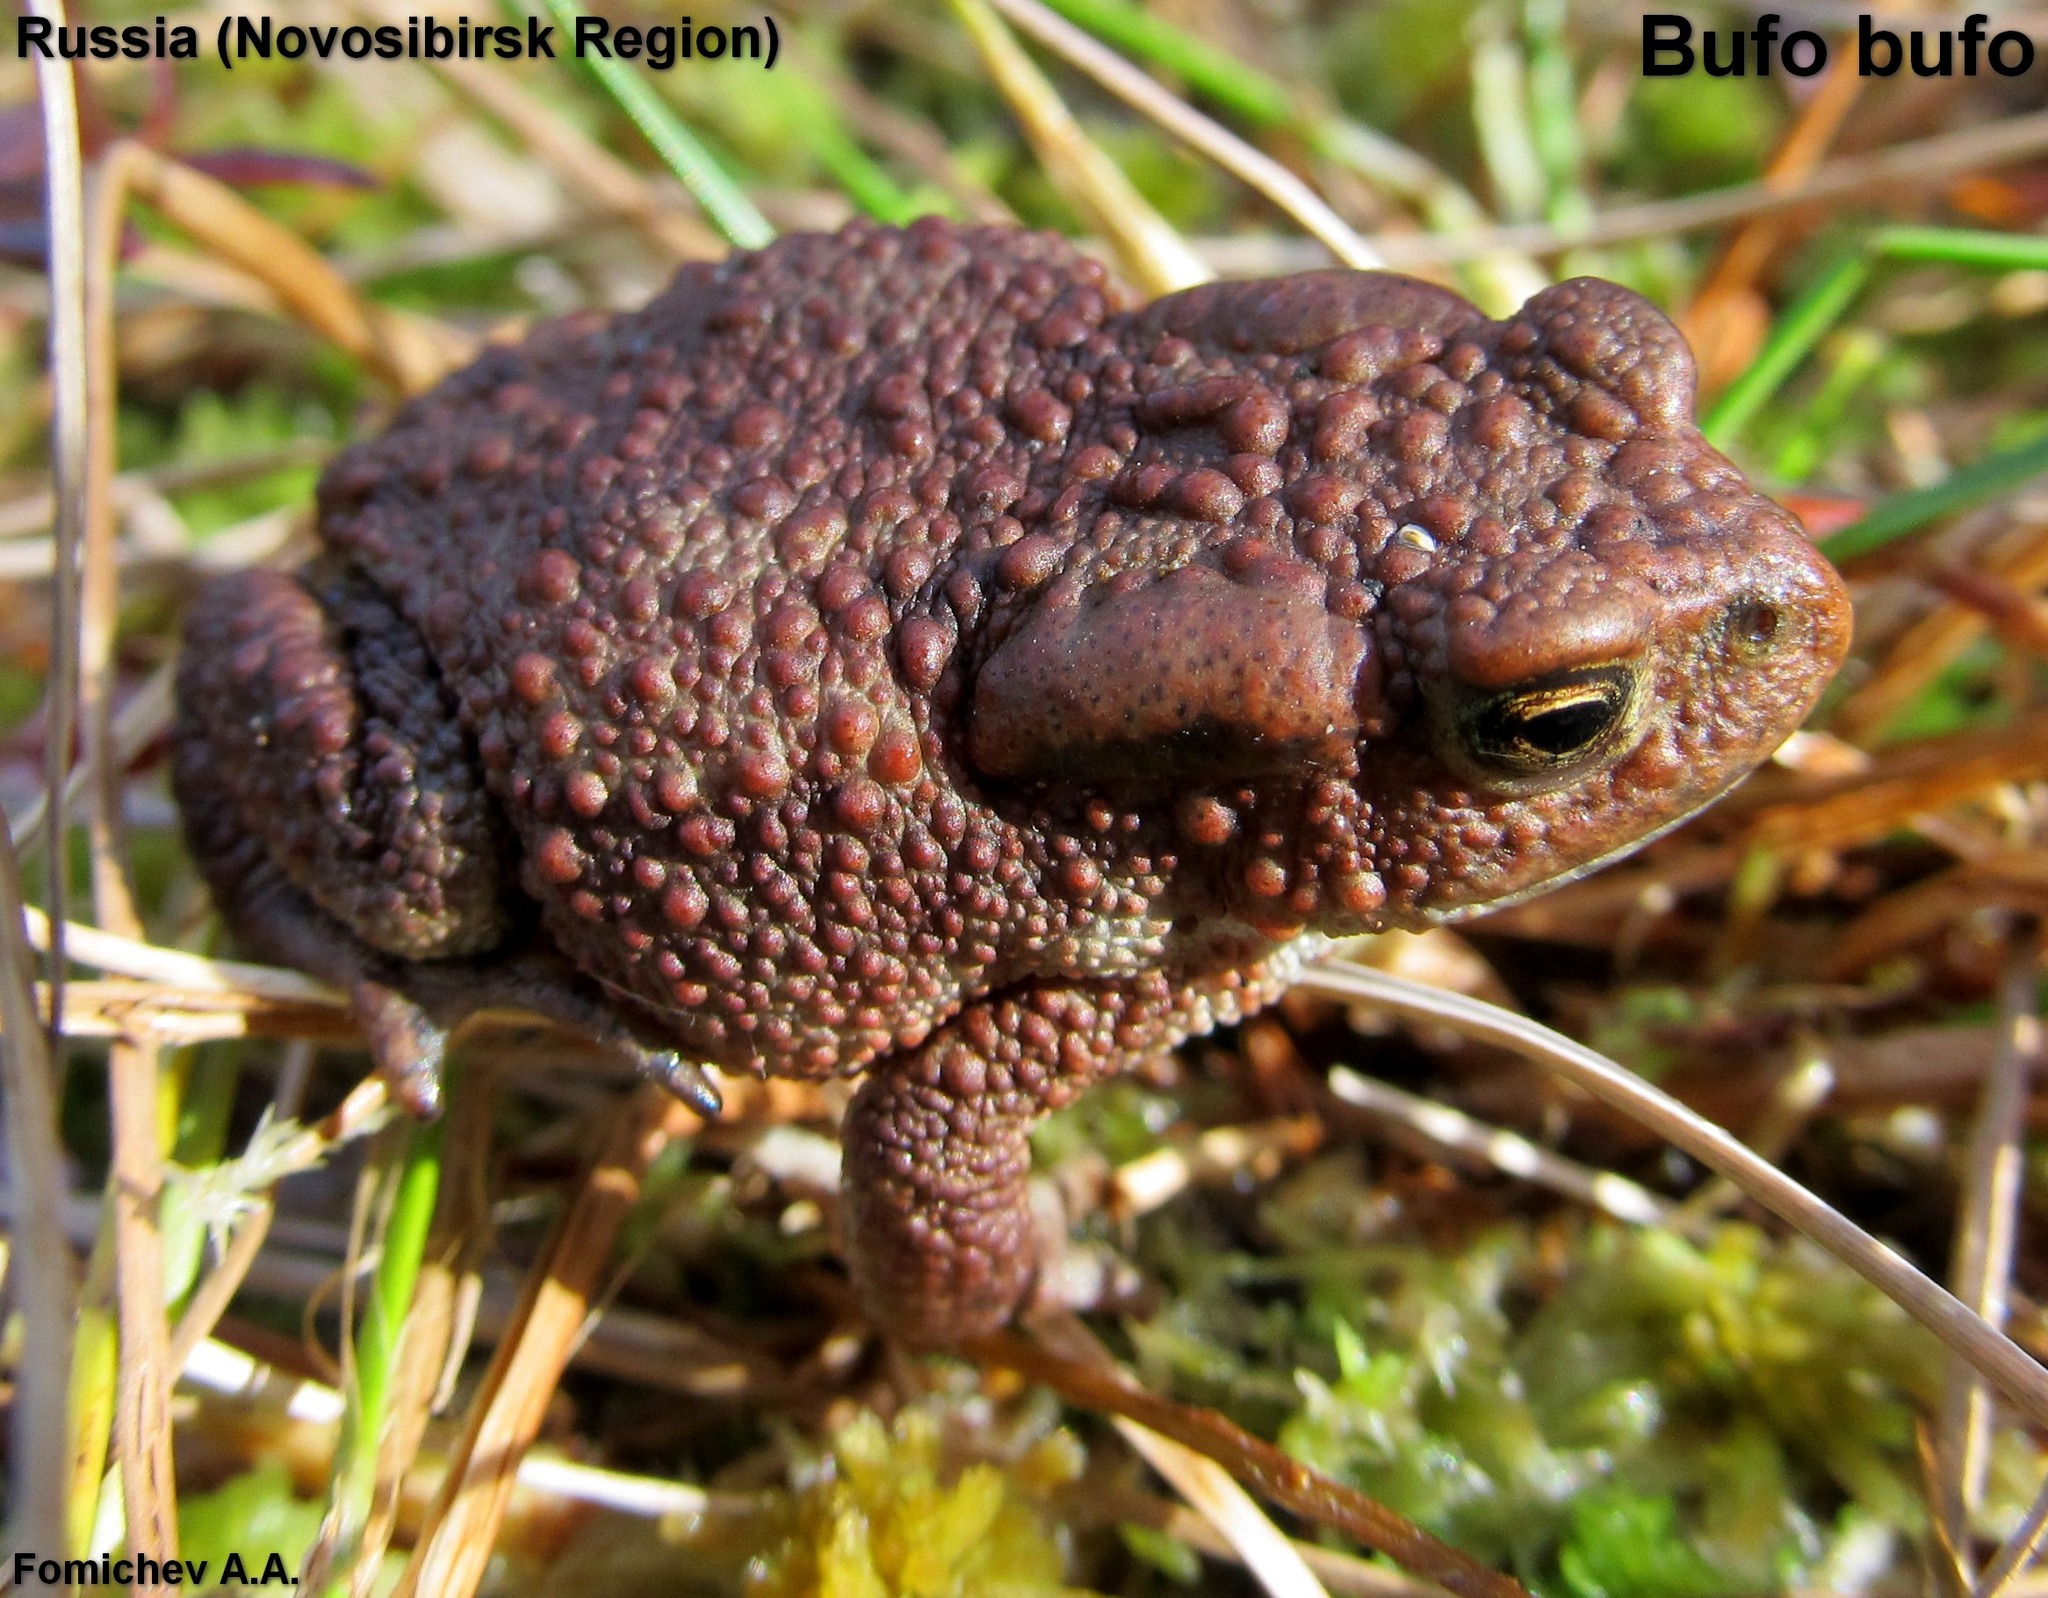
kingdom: Animalia
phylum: Chordata
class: Amphibia
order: Anura
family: Bufonidae
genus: Bufo
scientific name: Bufo bufo
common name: Common toad
